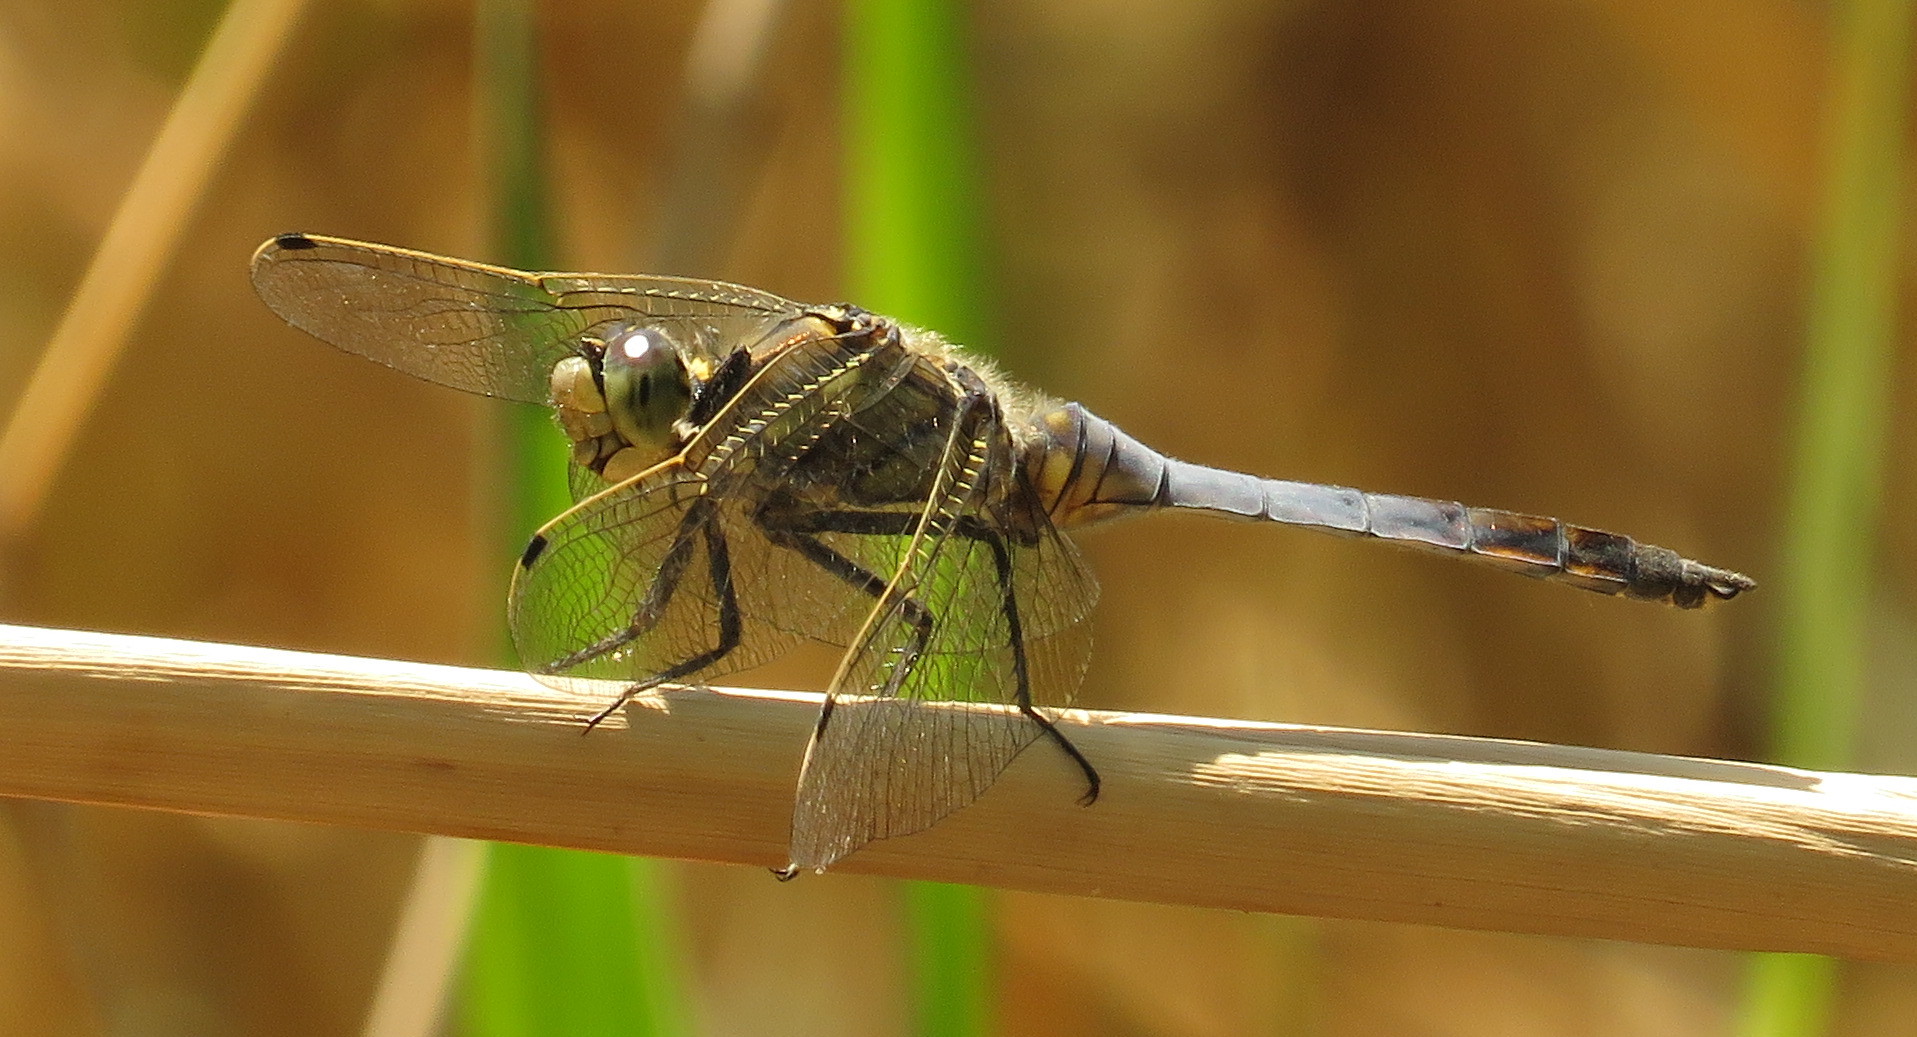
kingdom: Animalia
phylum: Arthropoda
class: Insecta
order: Odonata
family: Libellulidae
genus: Orthetrum
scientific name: Orthetrum cancellatum
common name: Black-tailed skimmer
